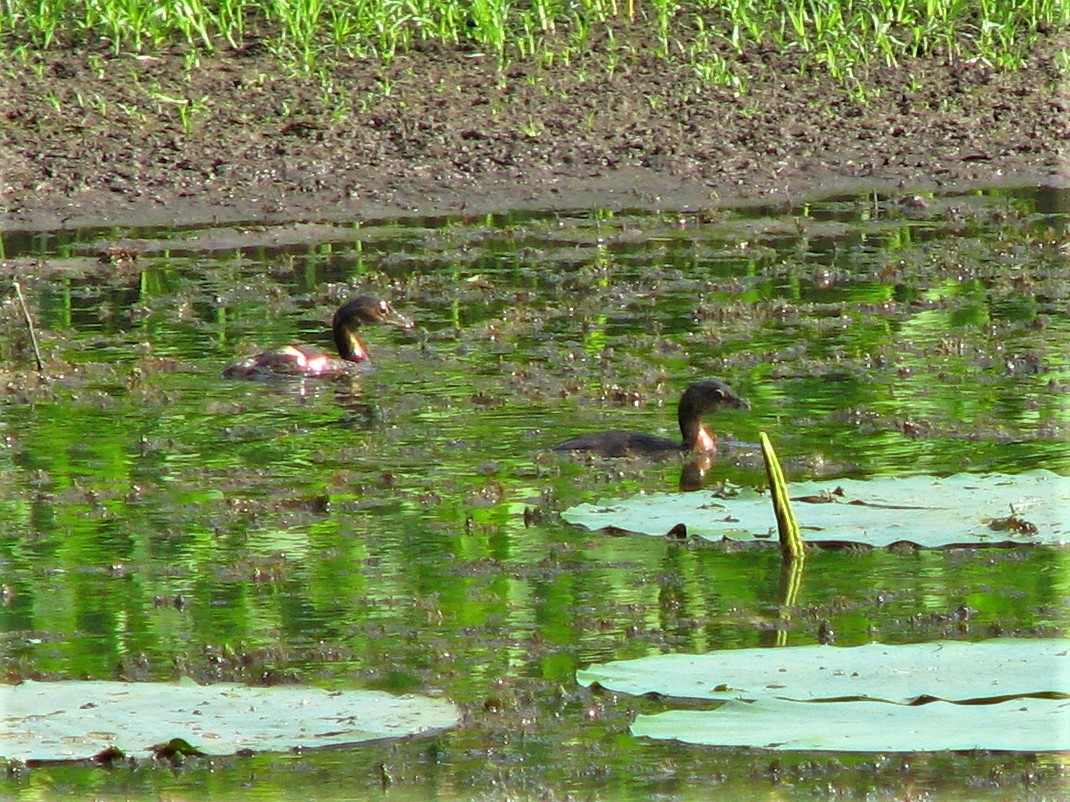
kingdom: Animalia
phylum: Chordata
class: Aves
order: Podicipediformes
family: Podicipedidae
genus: Podilymbus
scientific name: Podilymbus podiceps
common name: Pied-billed grebe
